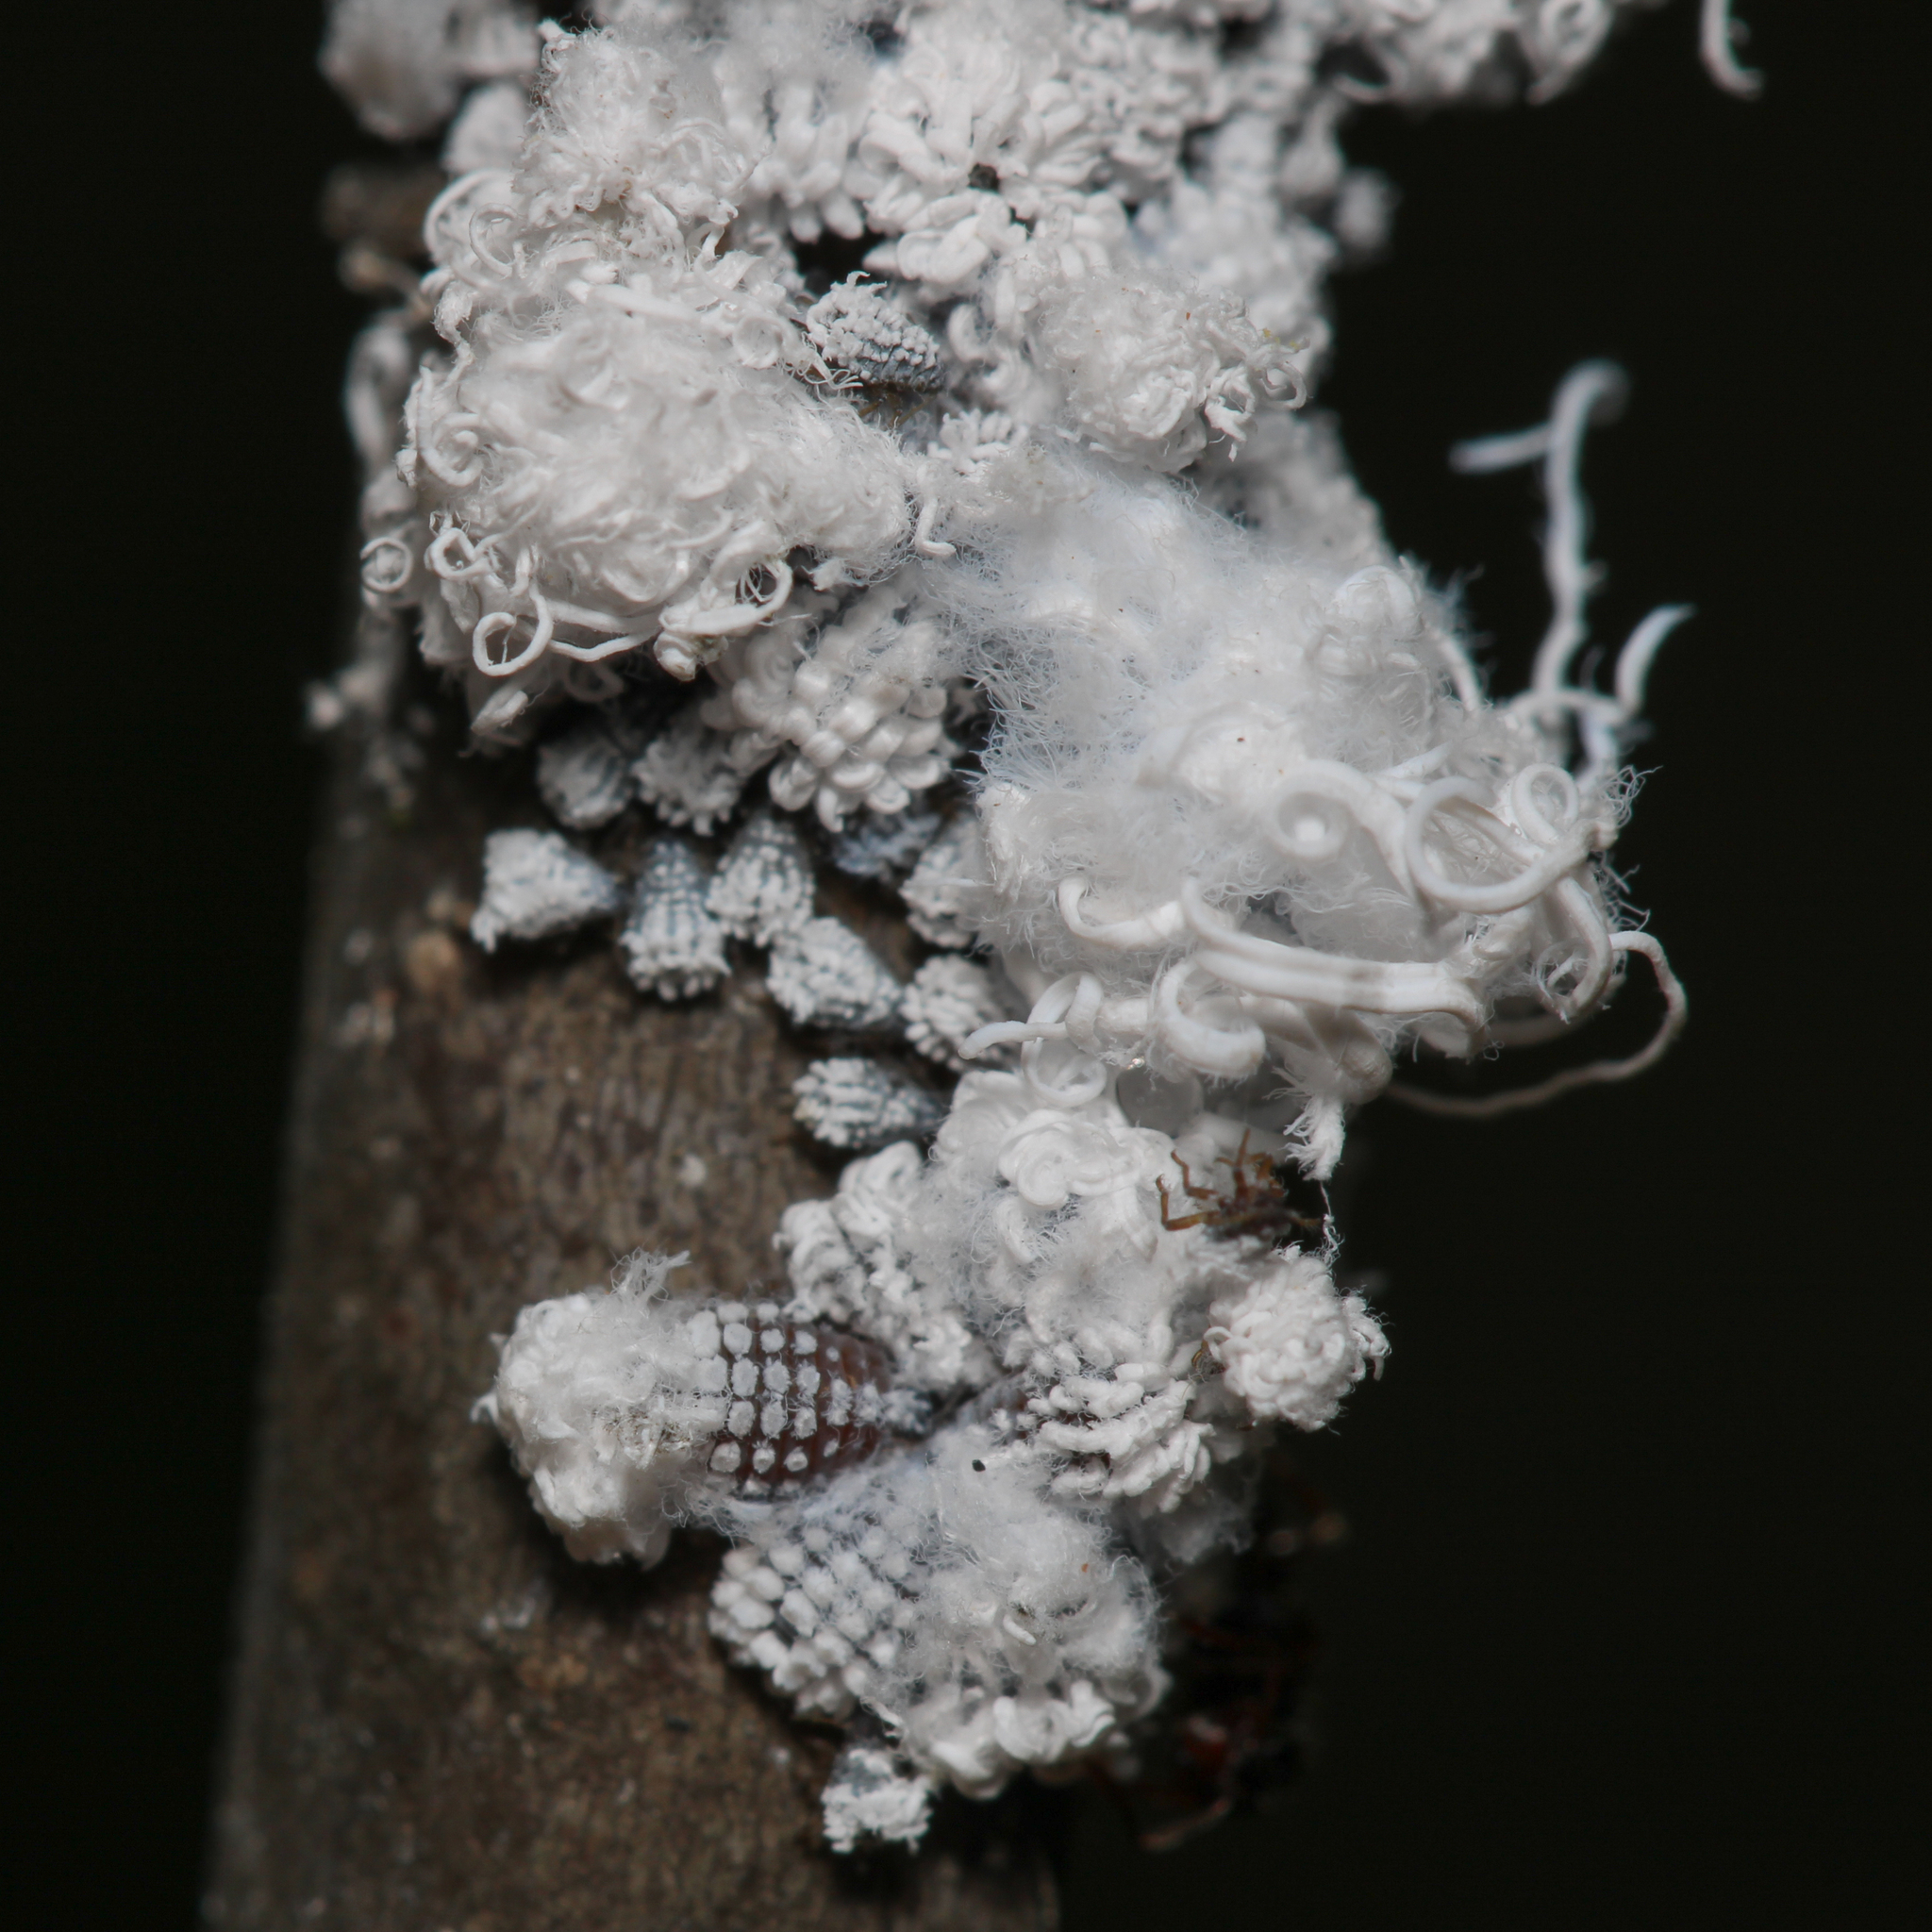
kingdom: Animalia
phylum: Arthropoda
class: Insecta
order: Hemiptera
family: Aphididae
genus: Prociphilus
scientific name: Prociphilus tessellatus
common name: Woolly alder aphid
